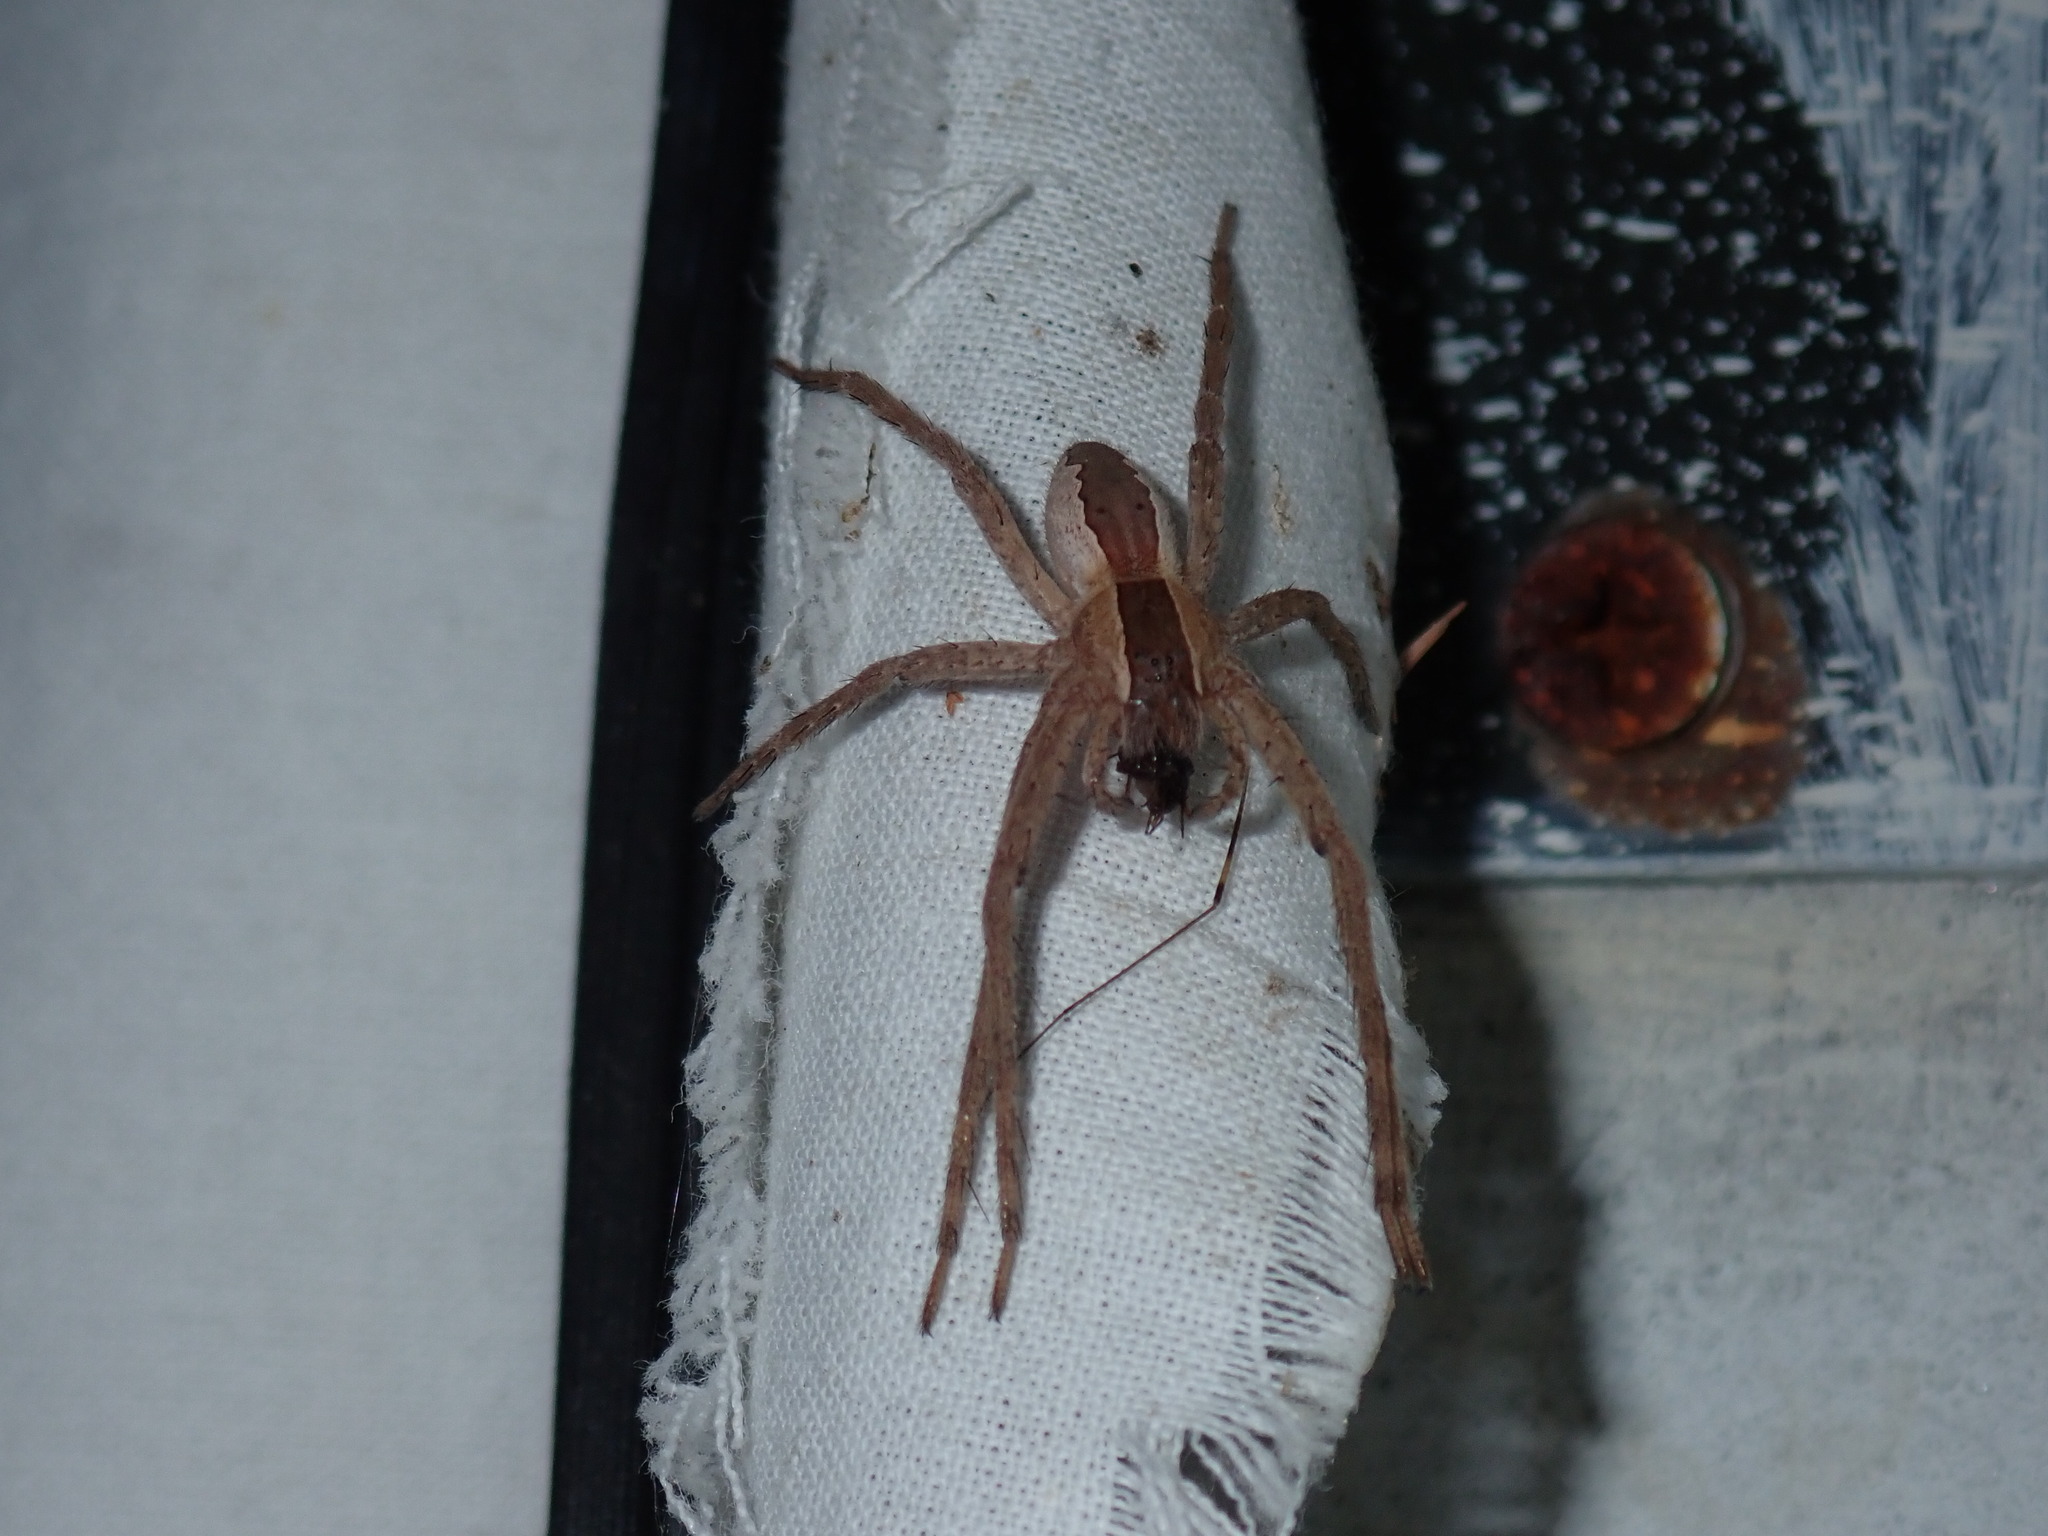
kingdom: Animalia
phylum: Arthropoda
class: Arachnida
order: Araneae
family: Pisauridae
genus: Pisaurina
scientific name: Pisaurina mira
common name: American nursery web spider
